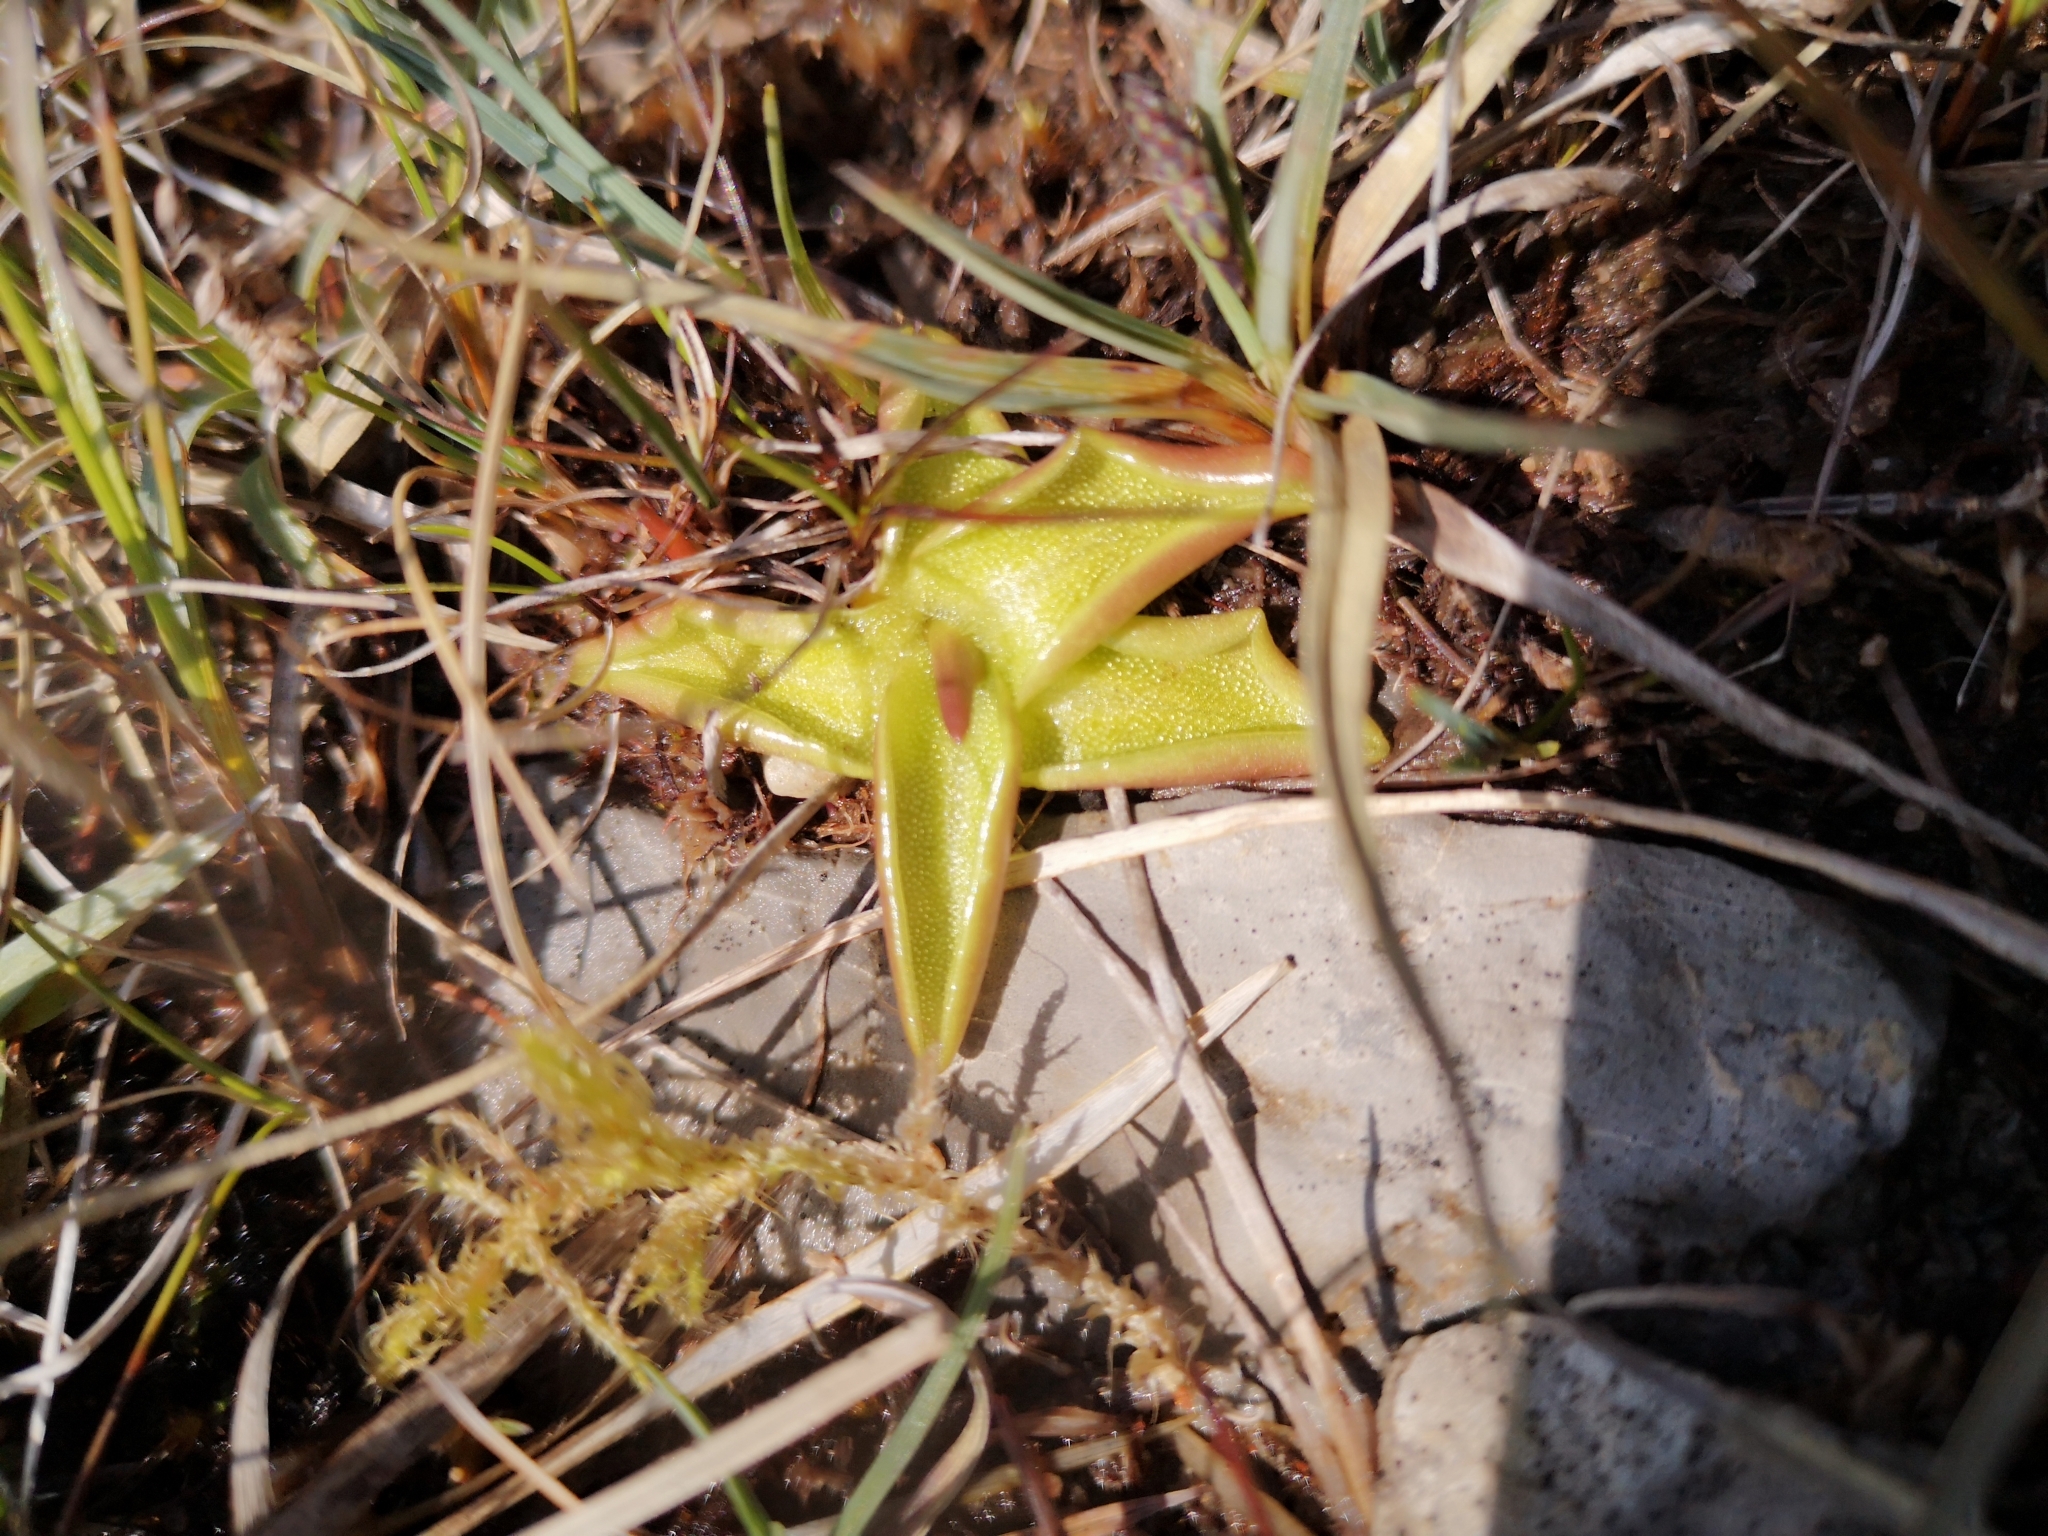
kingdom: Plantae
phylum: Tracheophyta
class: Magnoliopsida
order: Lamiales
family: Lentibulariaceae
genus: Pinguicula
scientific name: Pinguicula vulgaris
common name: Common butterwort
